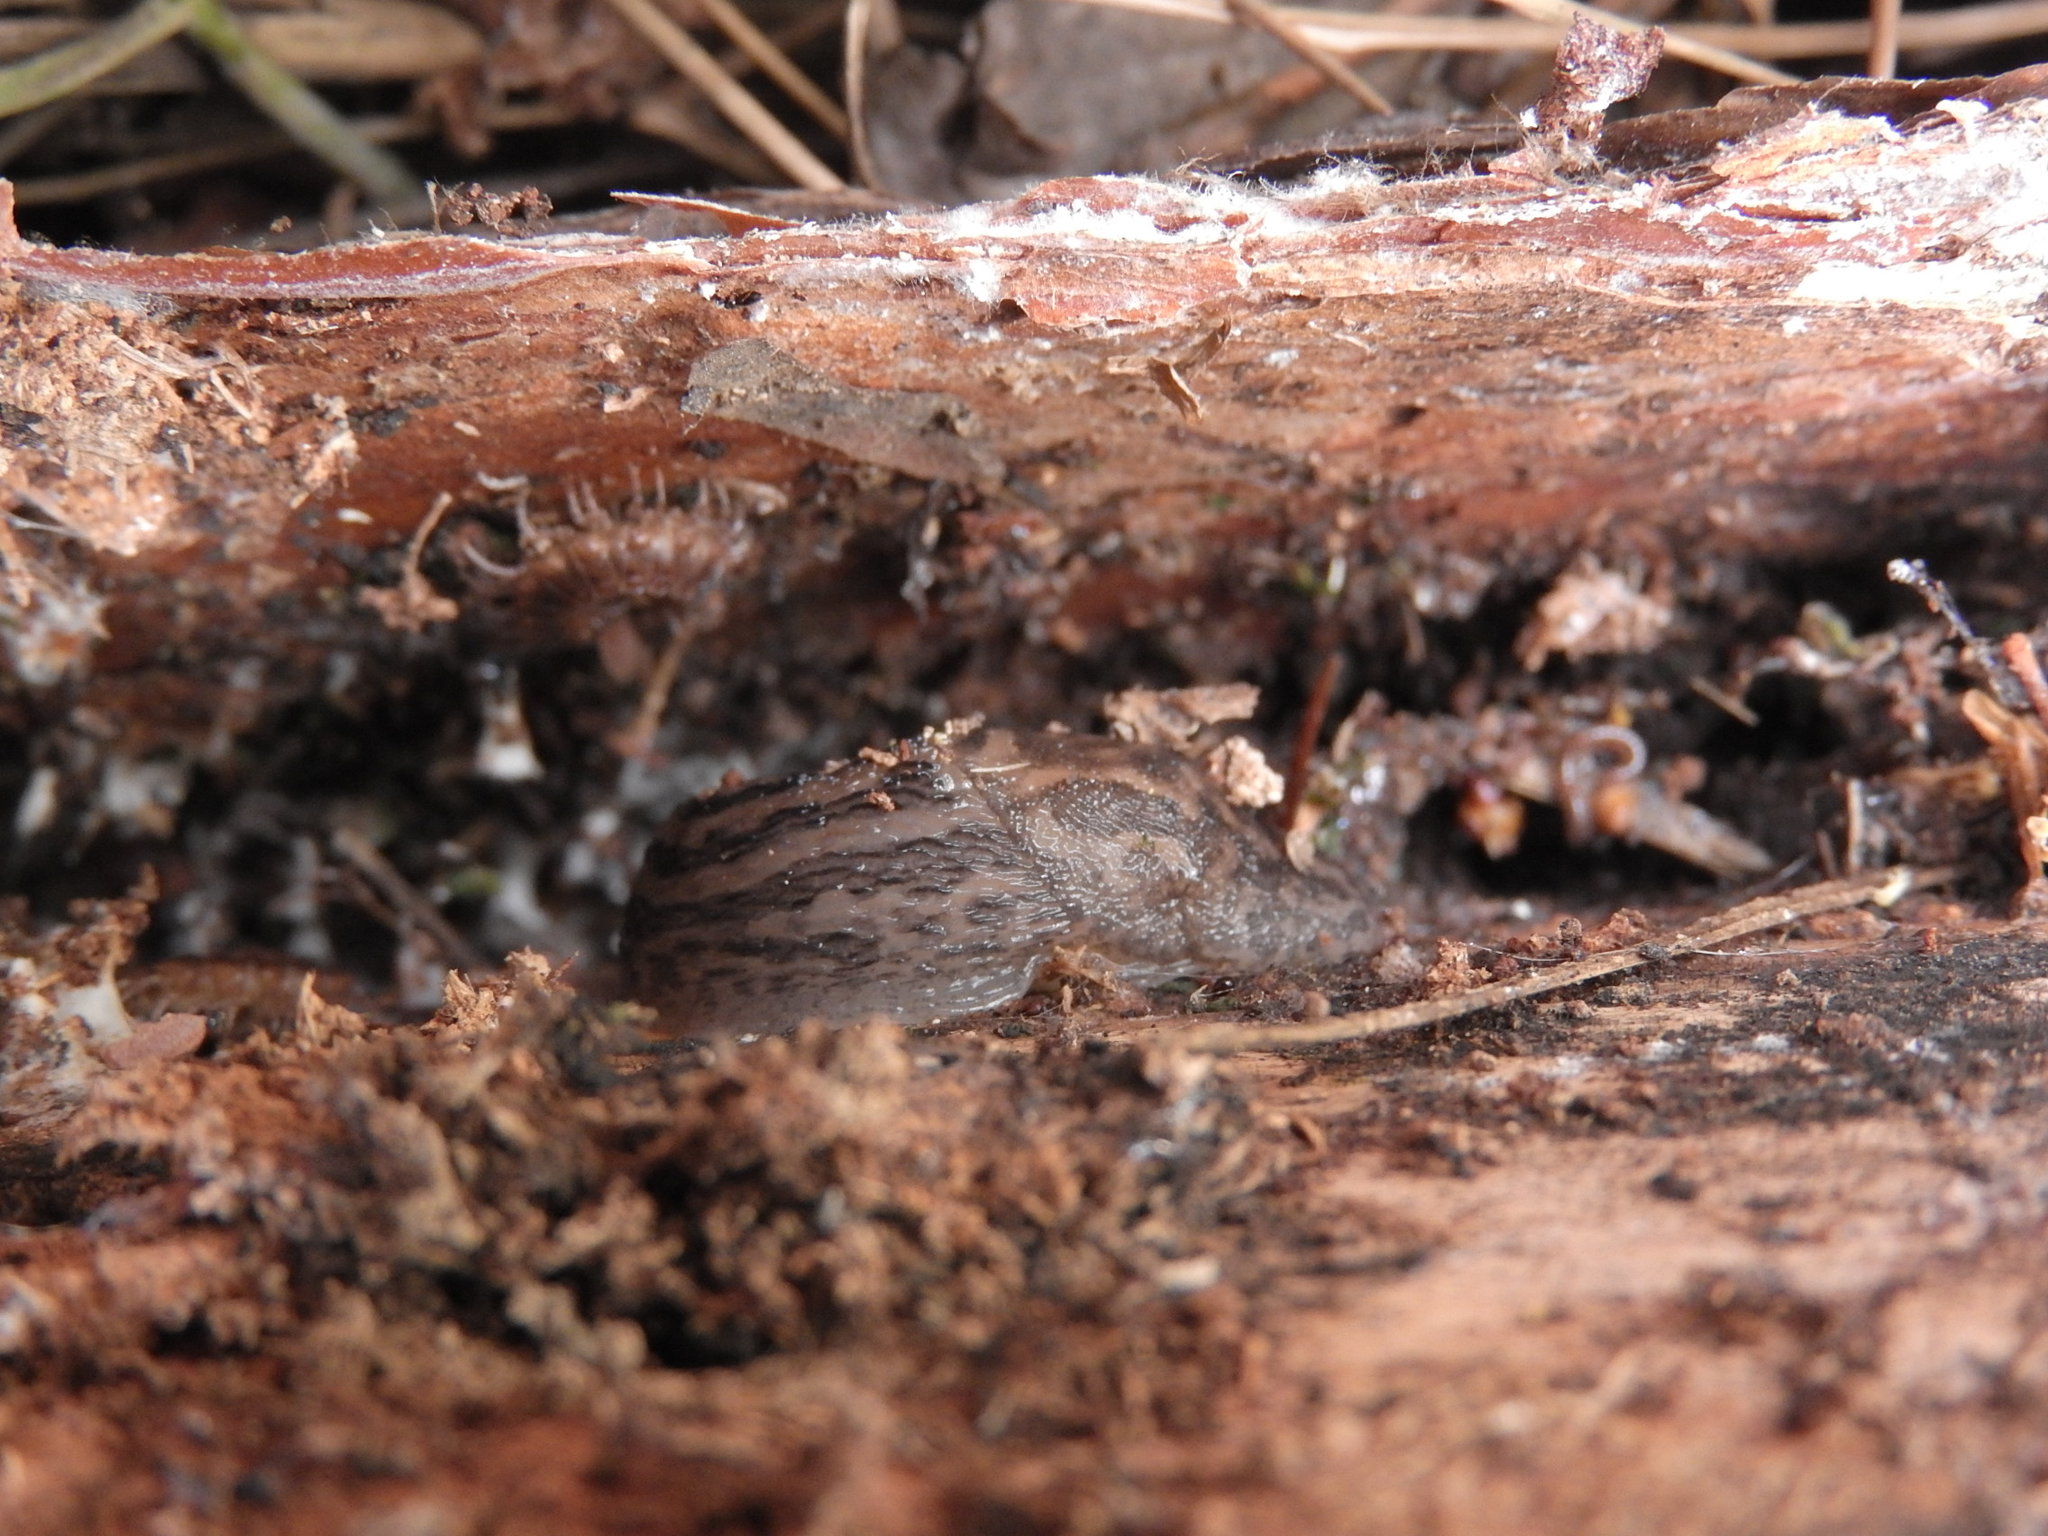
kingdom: Animalia
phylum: Mollusca
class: Gastropoda
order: Stylommatophora
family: Limacidae
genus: Limax
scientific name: Limax maximus
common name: Great grey slug
